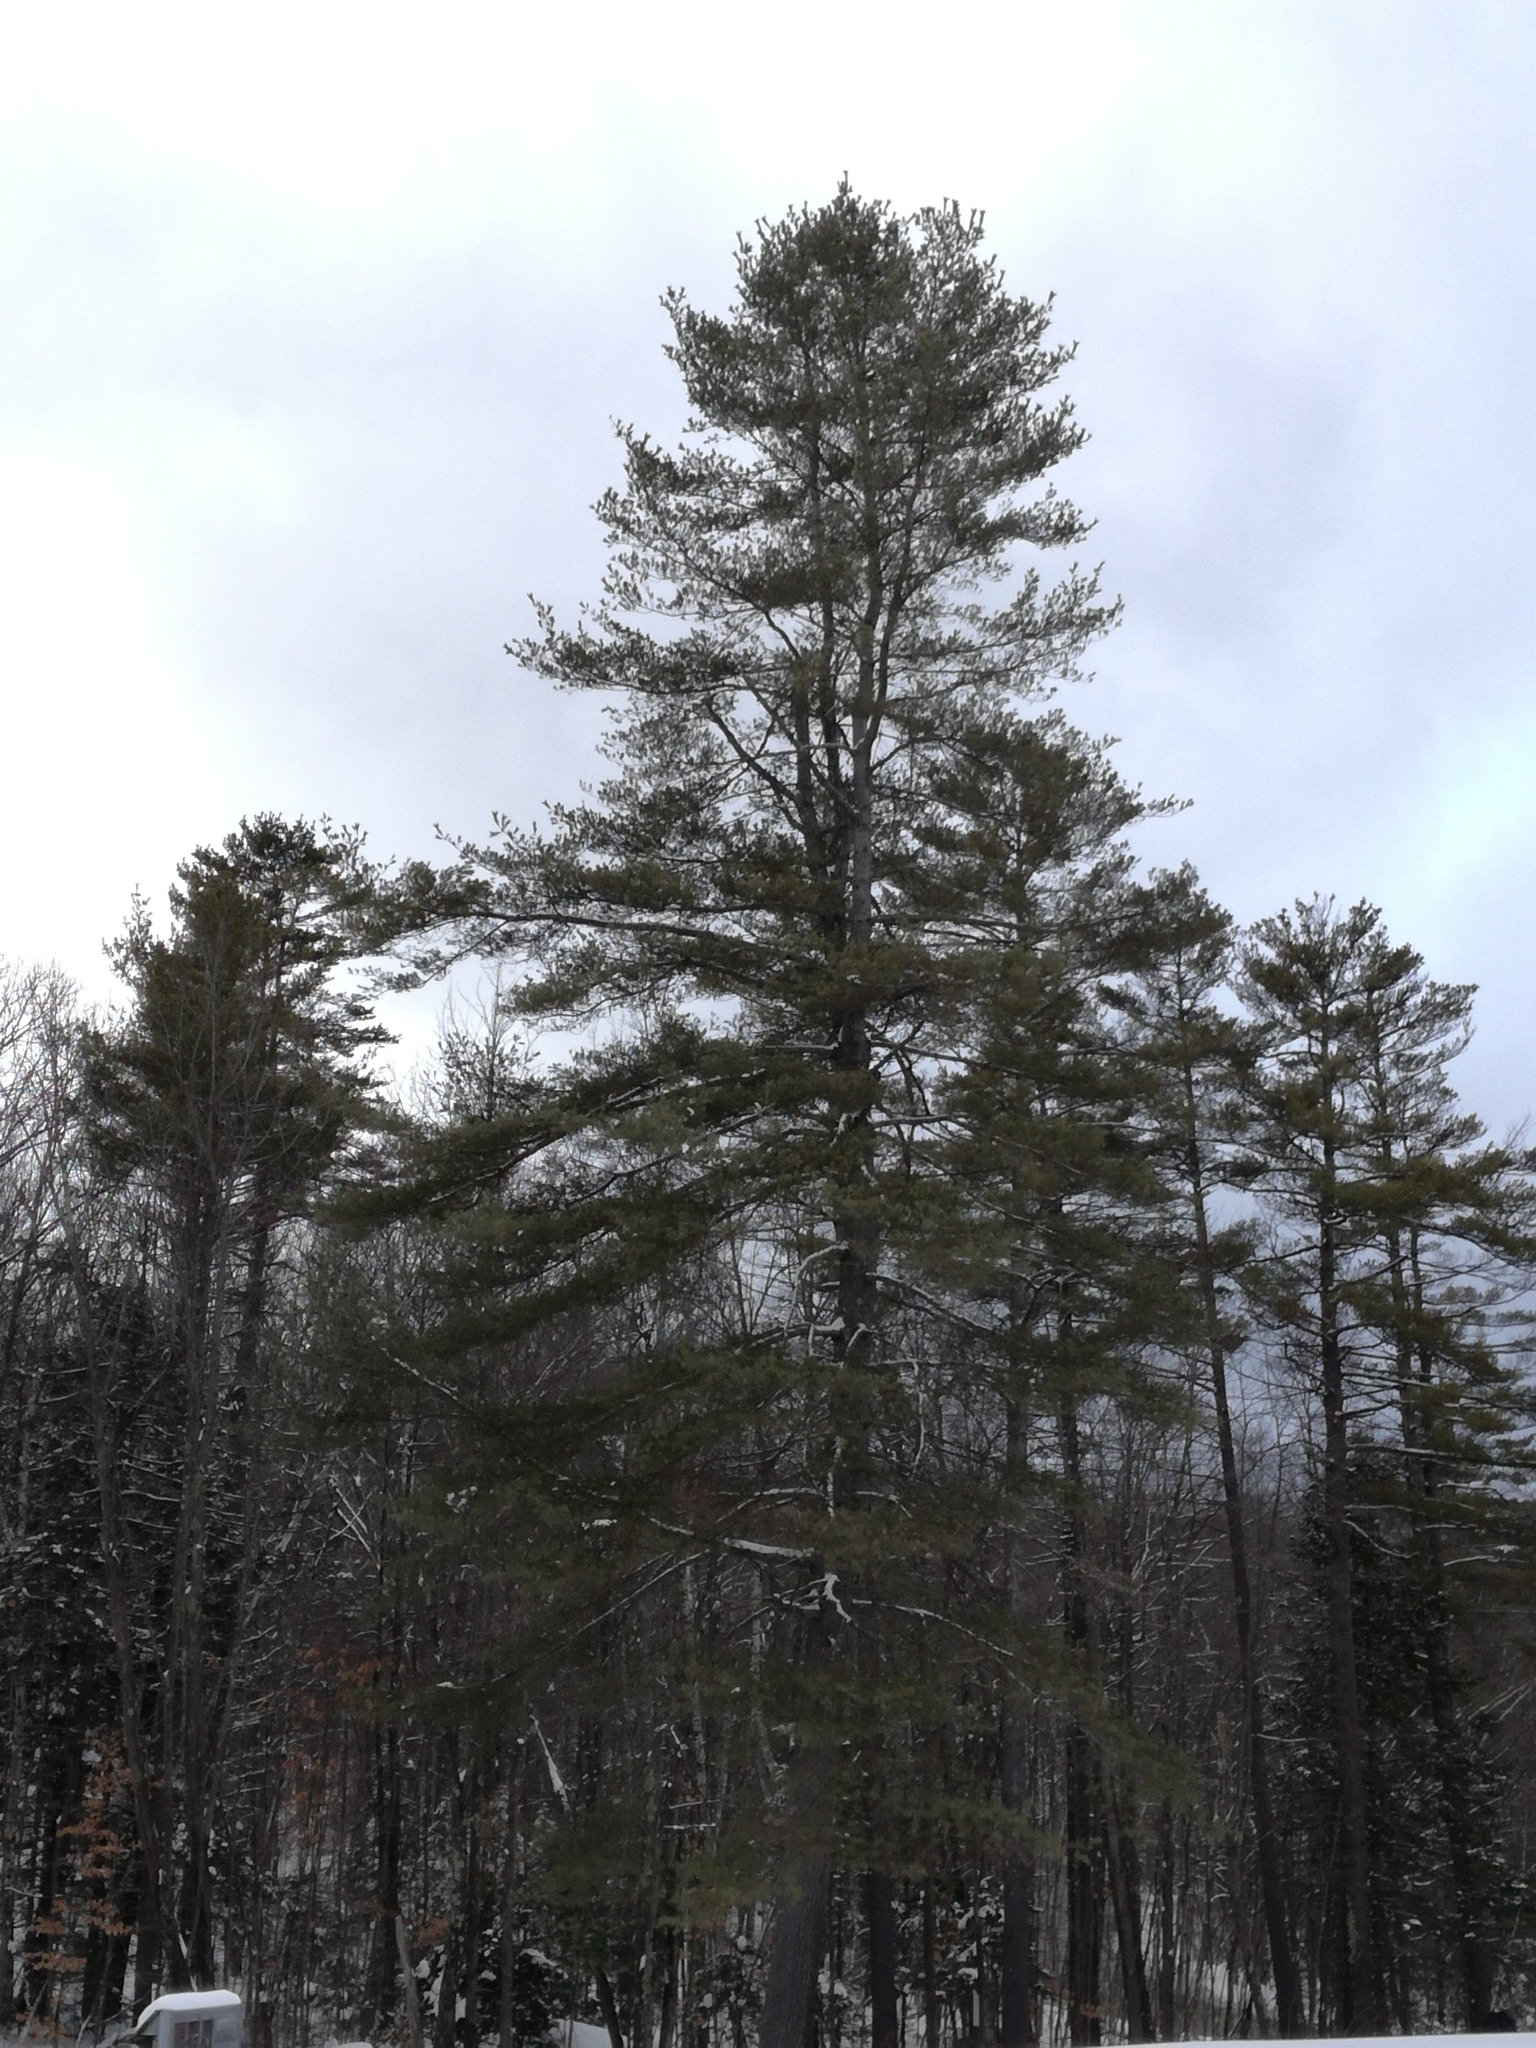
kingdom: Plantae
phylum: Tracheophyta
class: Pinopsida
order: Pinales
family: Pinaceae
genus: Pinus
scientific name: Pinus strobus
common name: Weymouth pine
